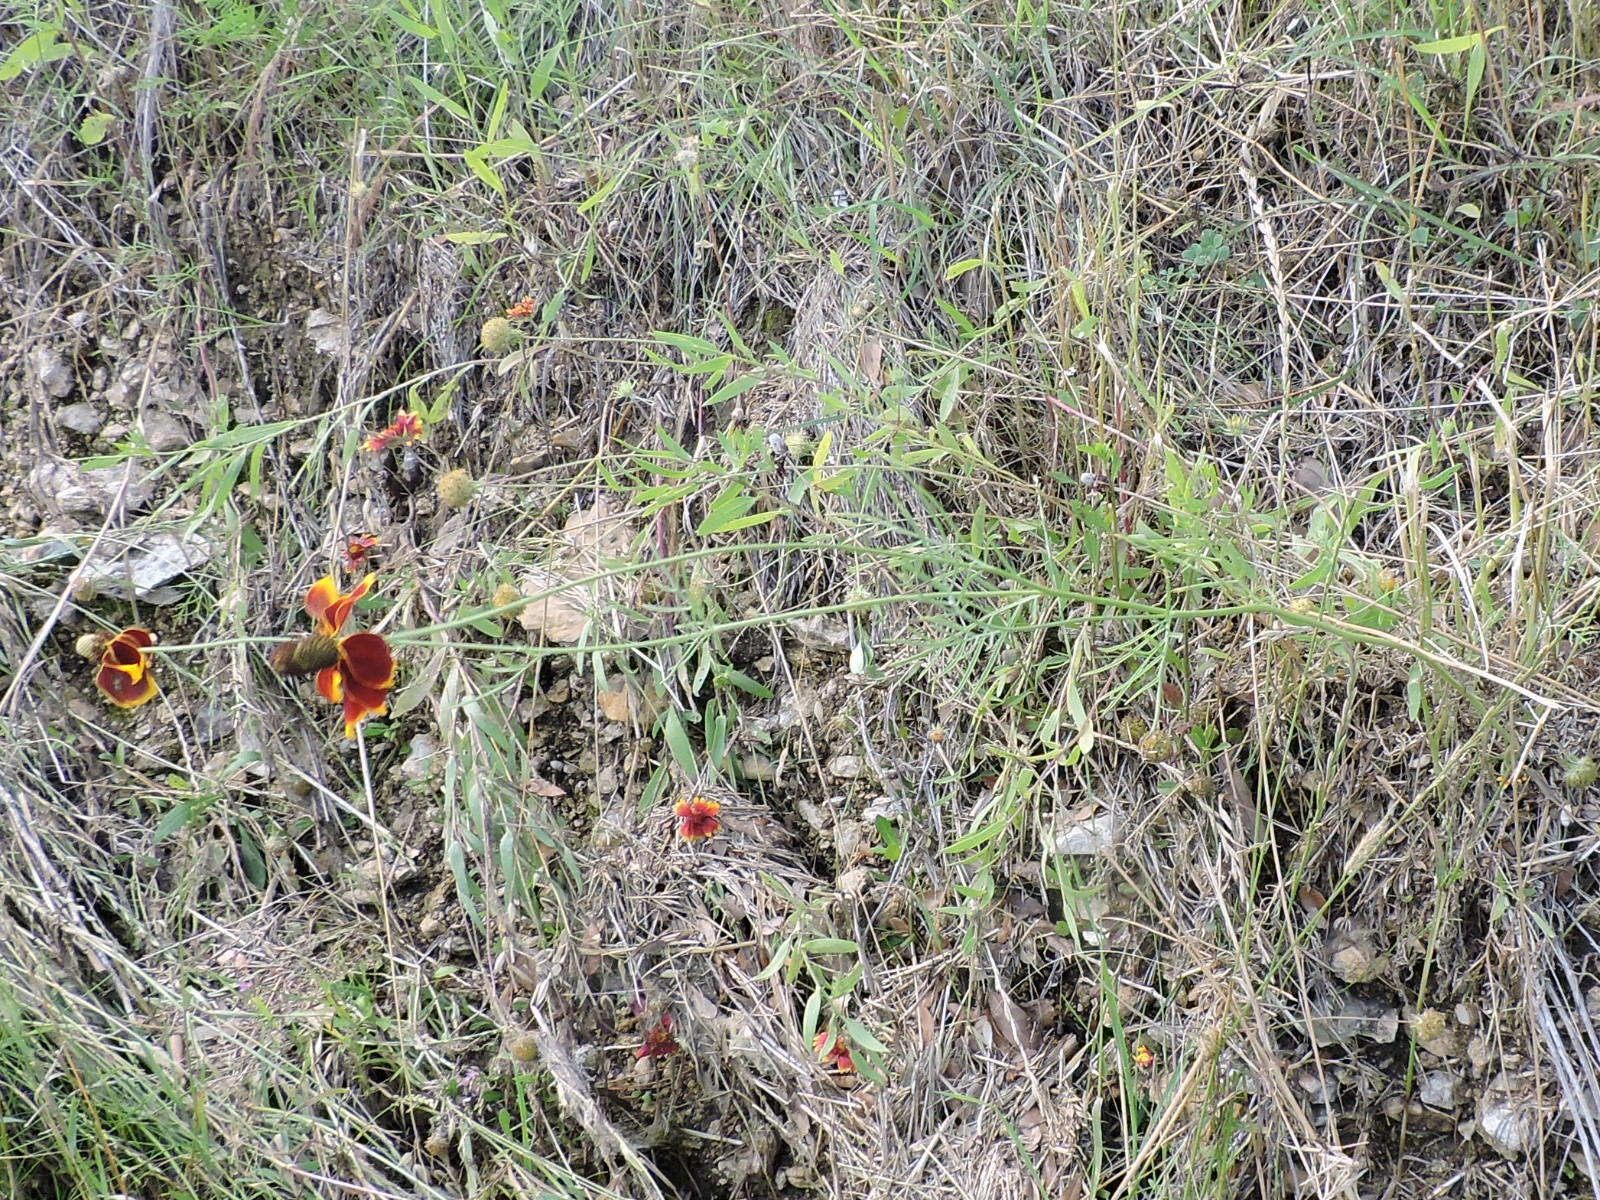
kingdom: Plantae
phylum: Tracheophyta
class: Magnoliopsida
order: Asterales
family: Asteraceae
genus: Ratibida
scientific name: Ratibida columnifera
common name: Prairie coneflower
